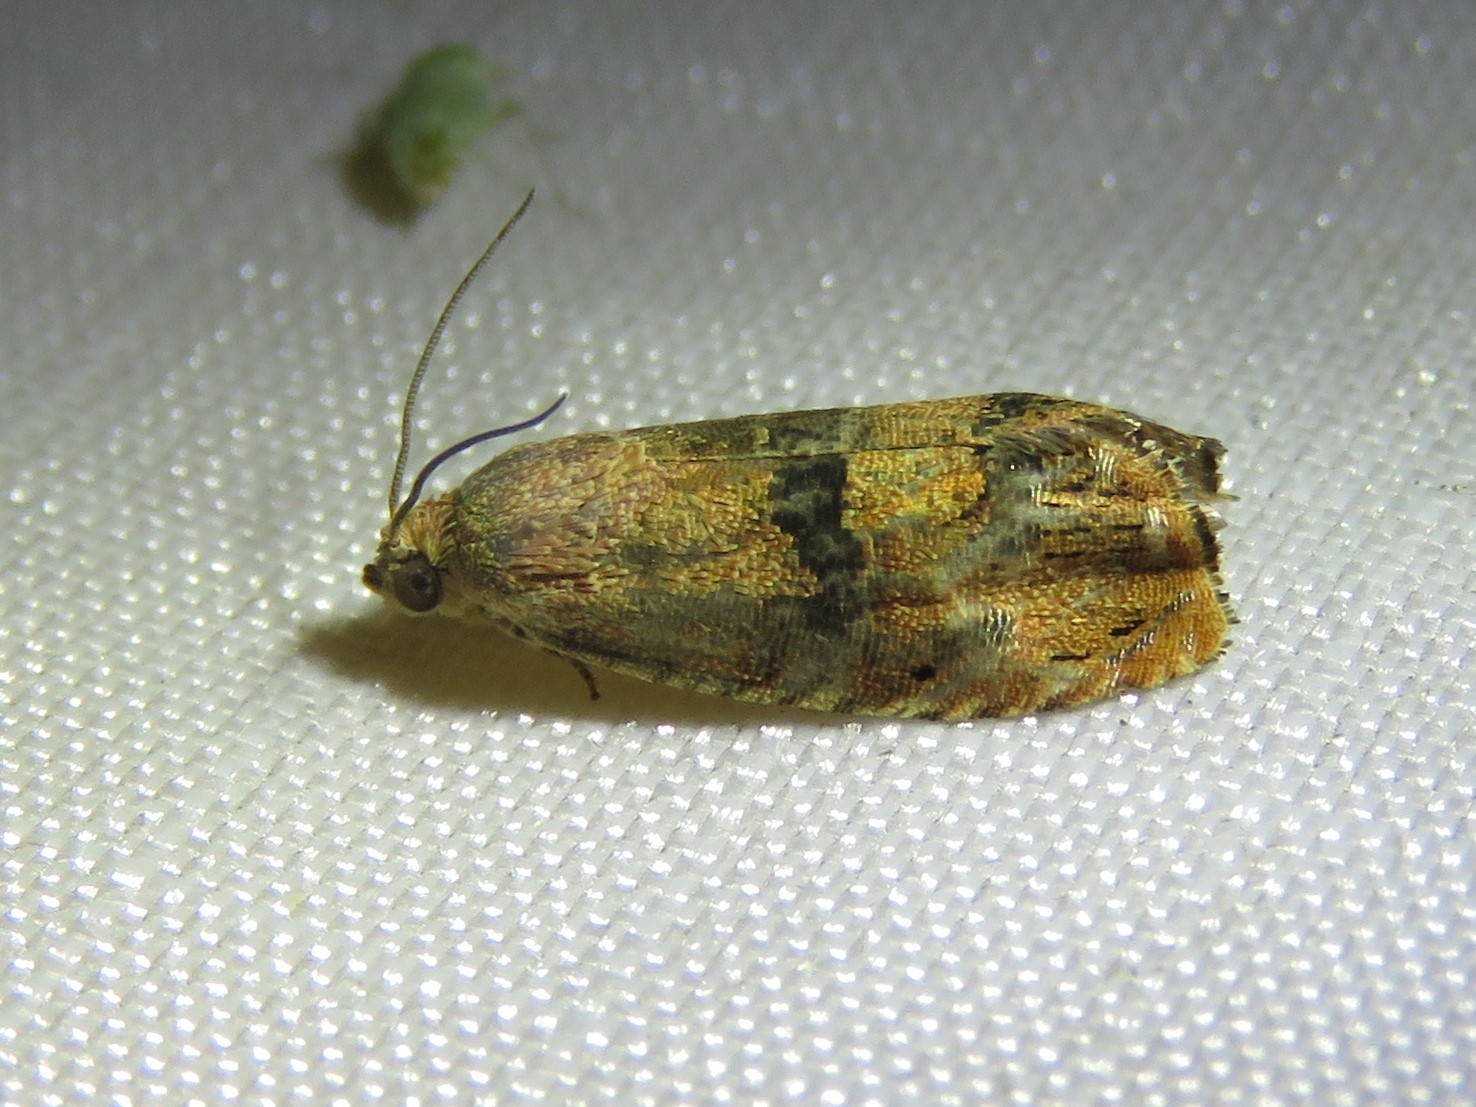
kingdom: Animalia
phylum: Arthropoda
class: Insecta
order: Lepidoptera
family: Tortricidae
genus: Cydia
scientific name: Cydia latiferreana
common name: Filbertworm moth
